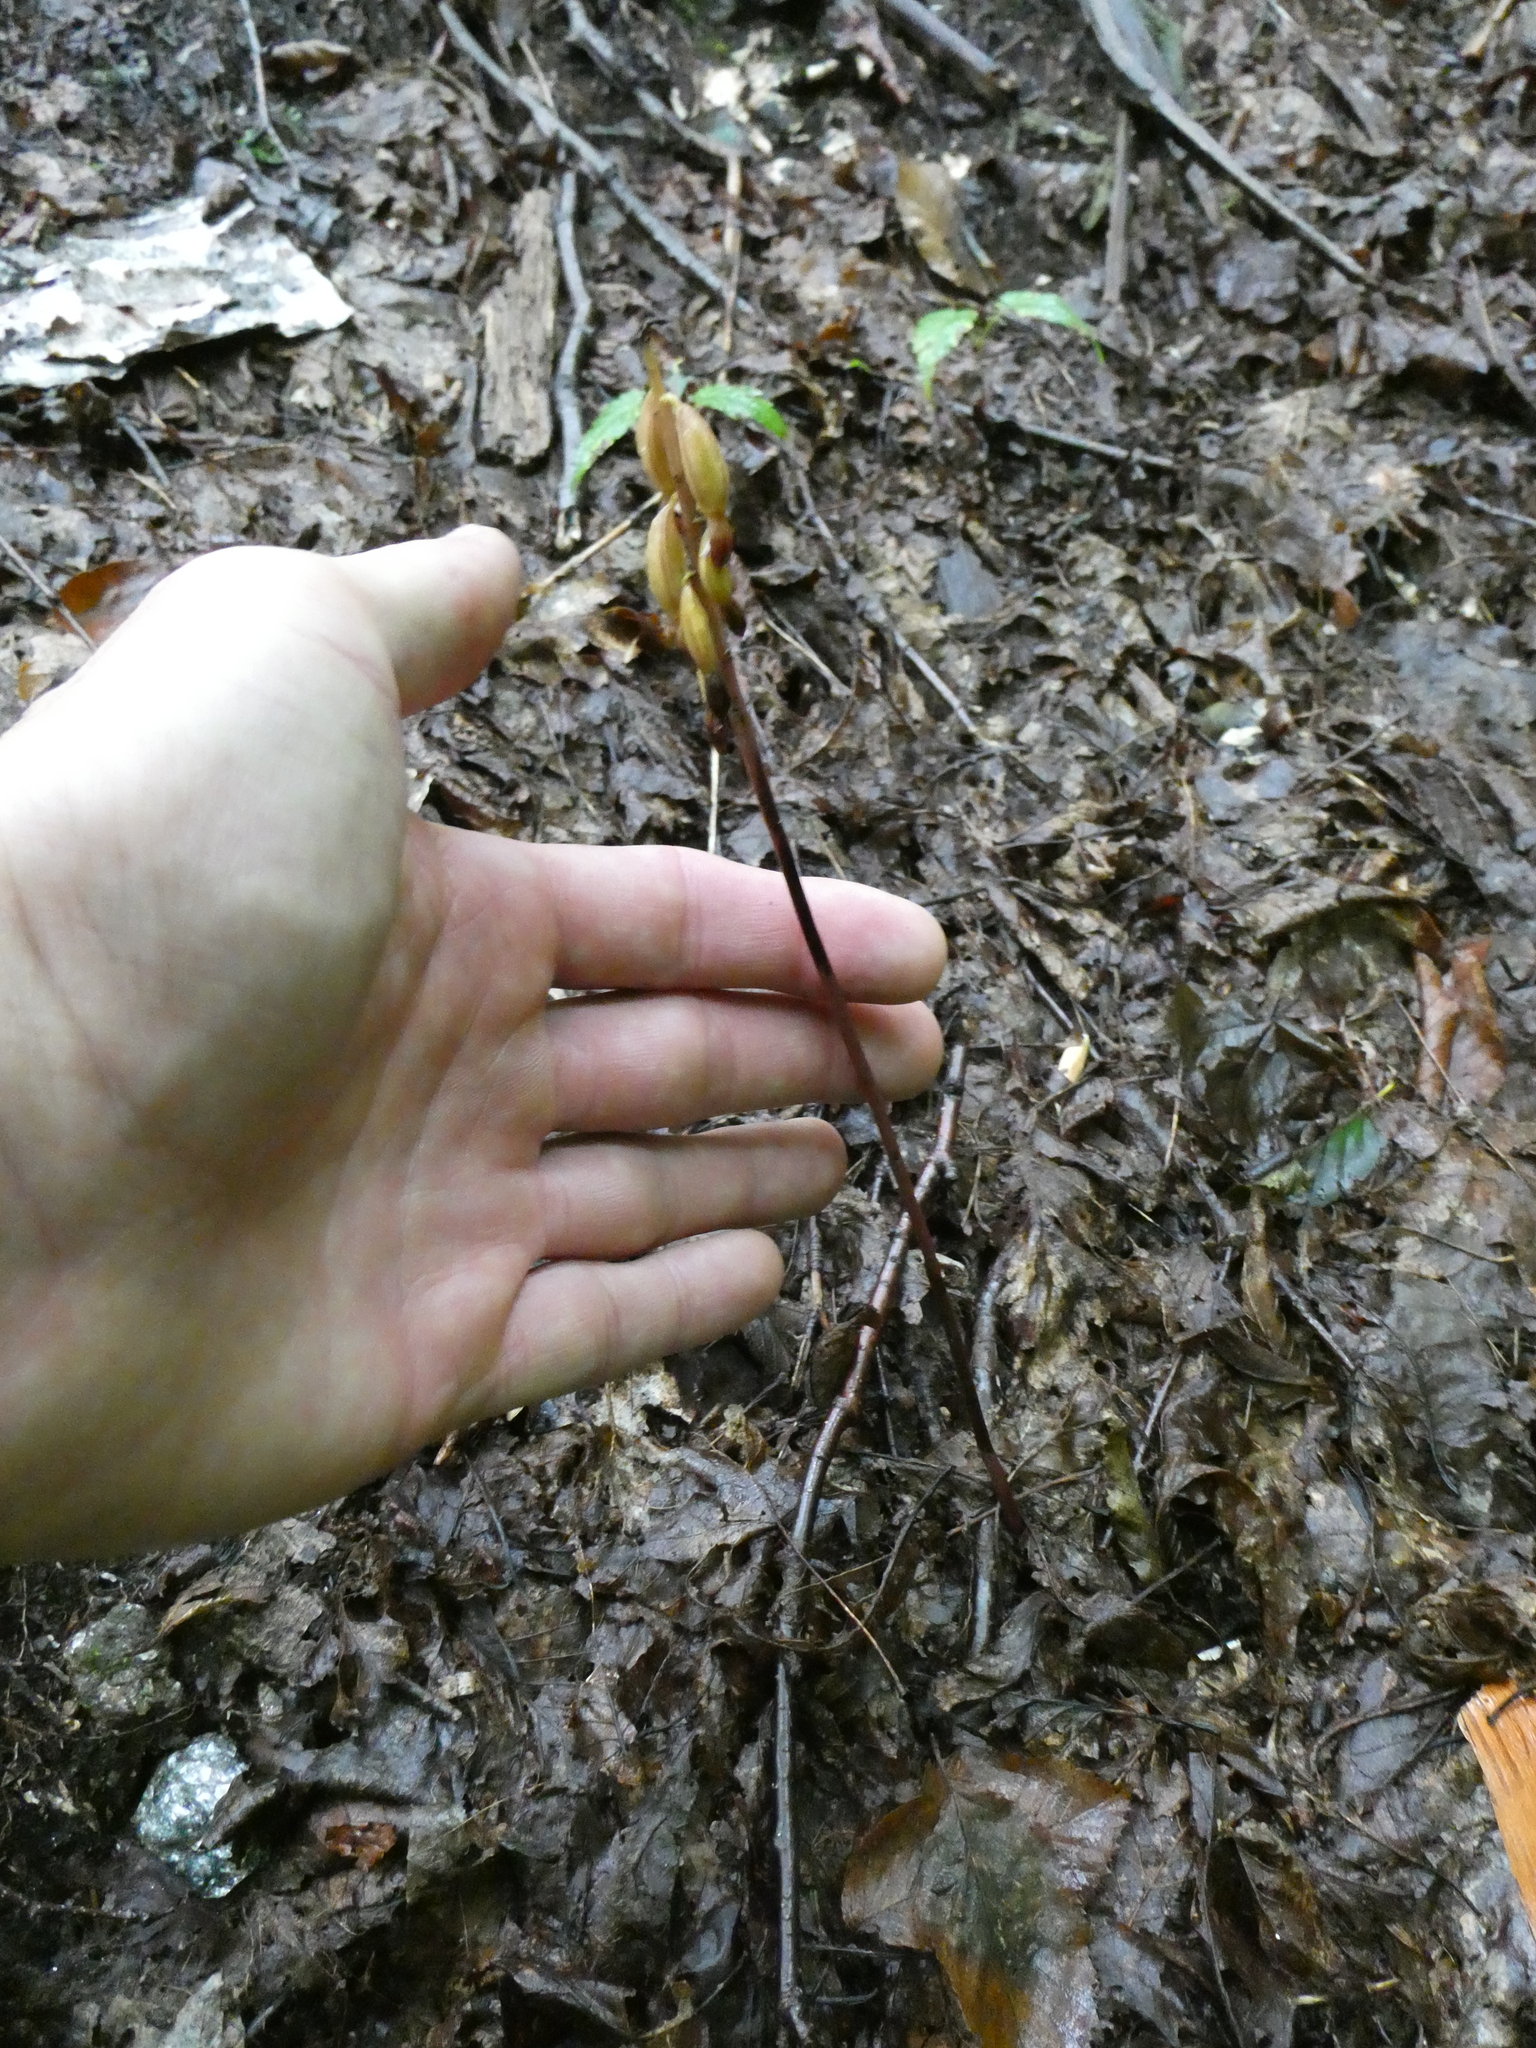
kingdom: Plantae
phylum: Tracheophyta
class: Liliopsida
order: Asparagales
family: Orchidaceae
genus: Corallorhiza
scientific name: Corallorhiza maculata
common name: Spotted coralroot
